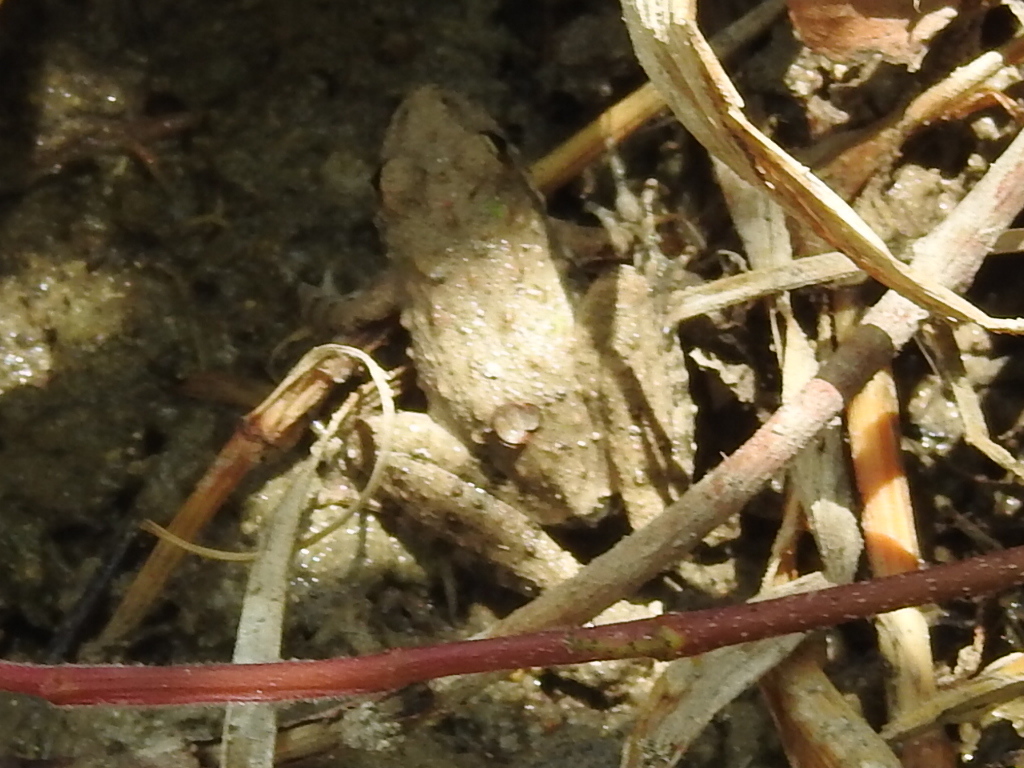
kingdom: Animalia
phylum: Chordata
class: Amphibia
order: Anura
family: Hylidae
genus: Acris
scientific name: Acris blanchardi
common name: Blanchard's cricket frog
